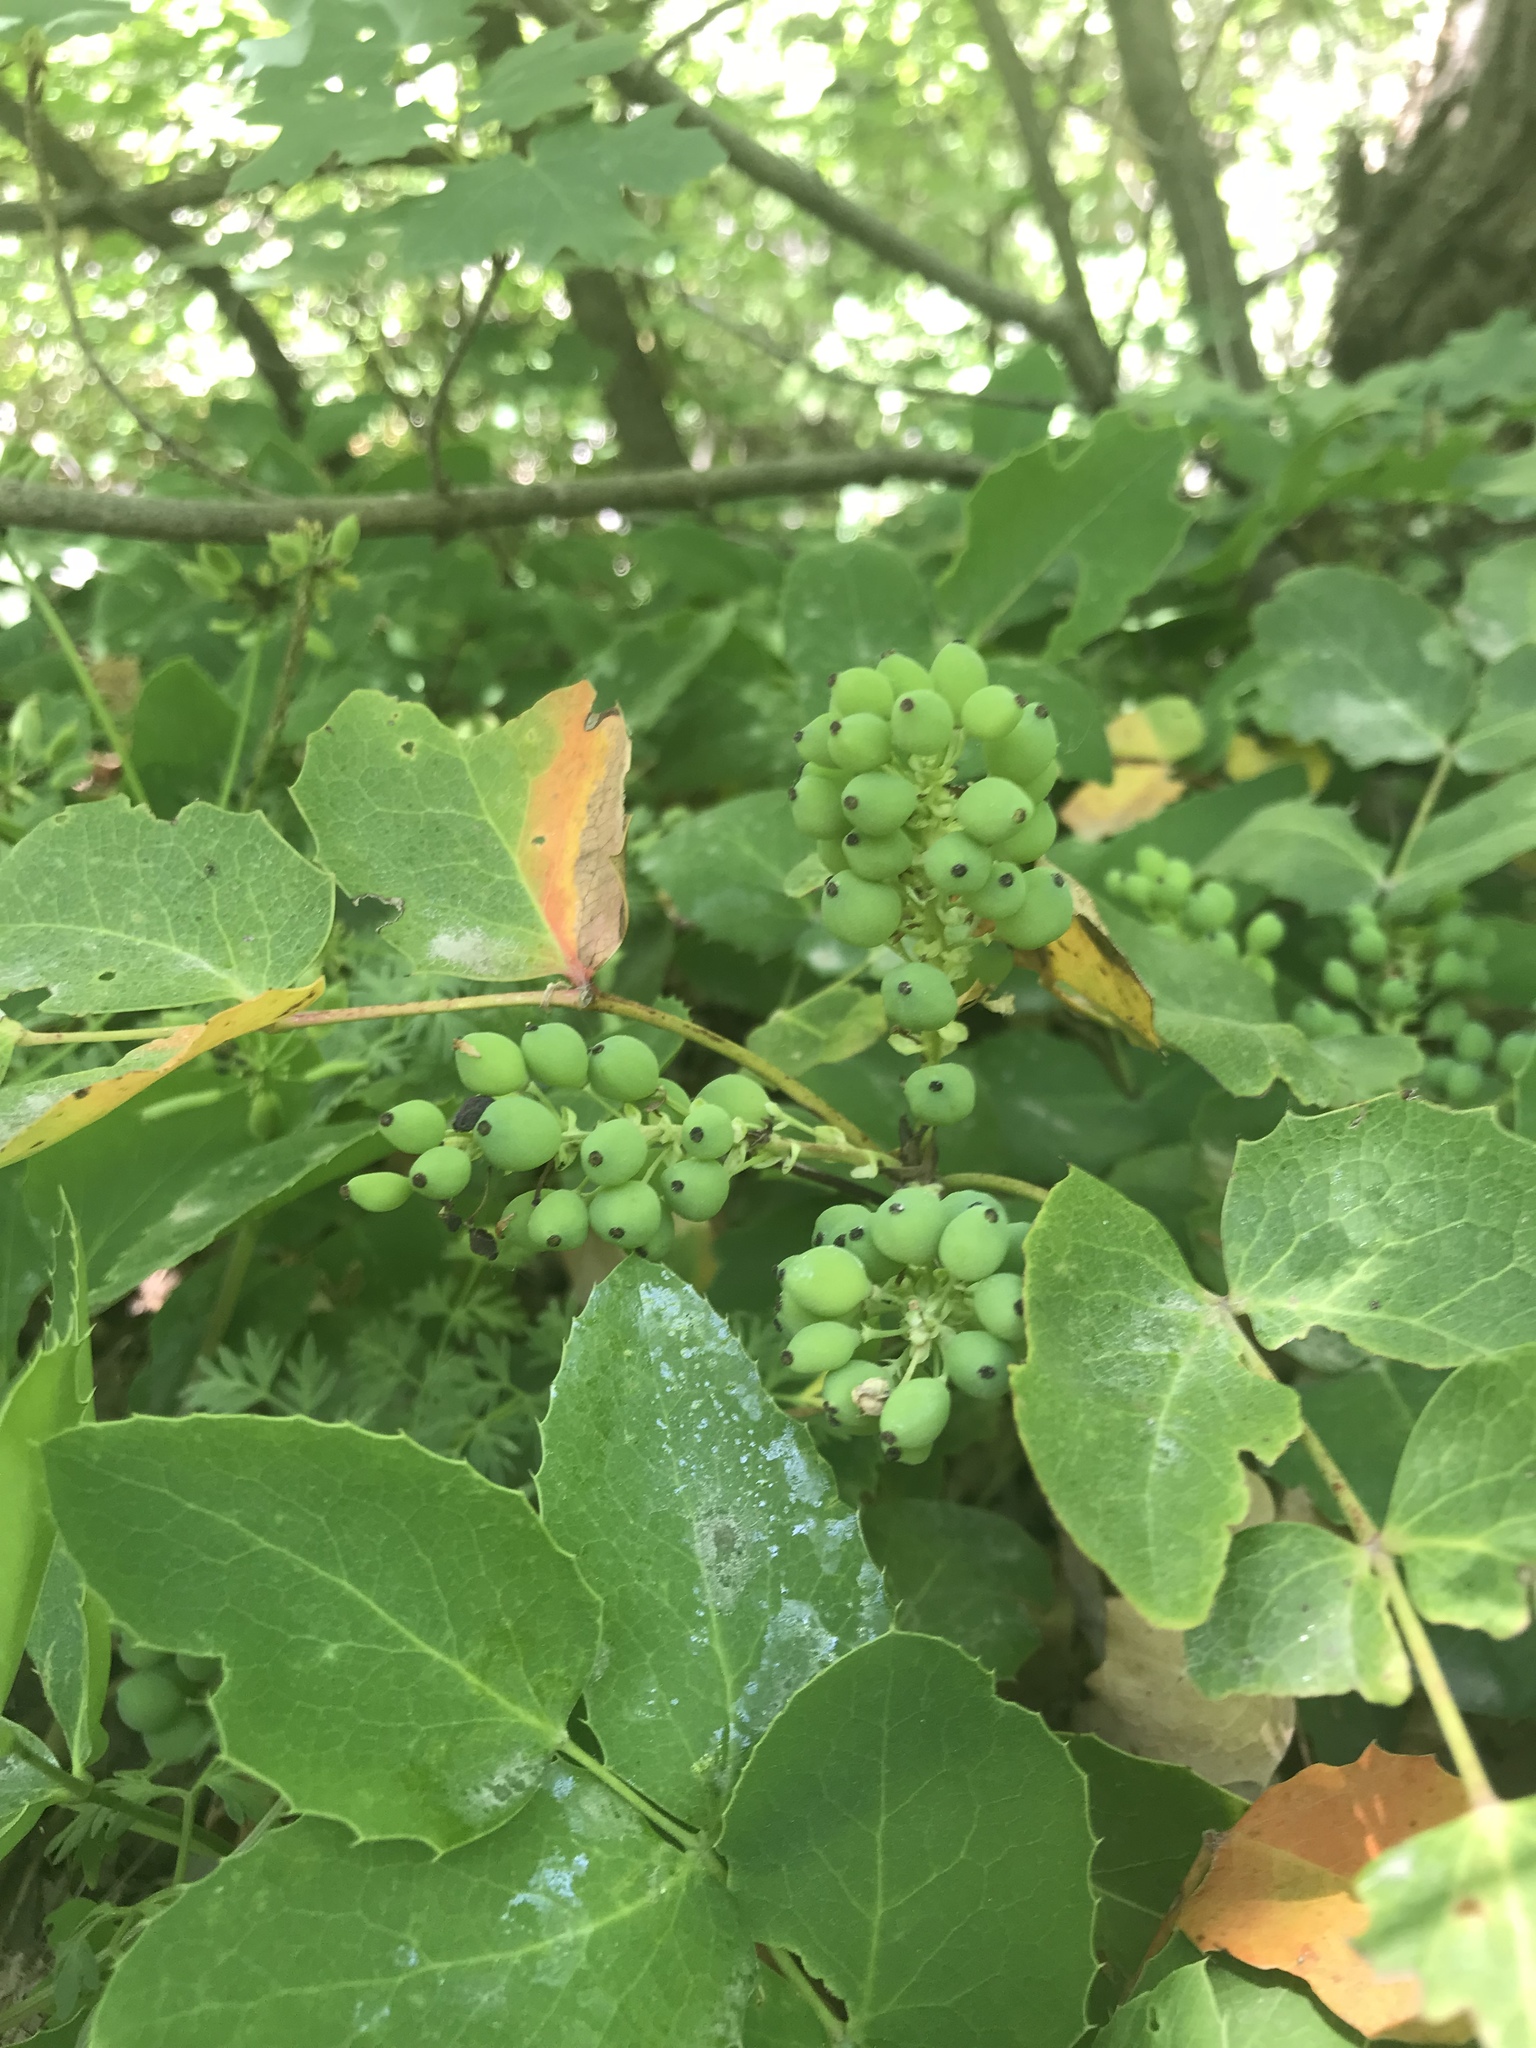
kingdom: Plantae
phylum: Tracheophyta
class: Magnoliopsida
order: Ranunculales
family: Berberidaceae
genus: Mahonia
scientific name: Mahonia repens
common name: Creeping oregon-grape
